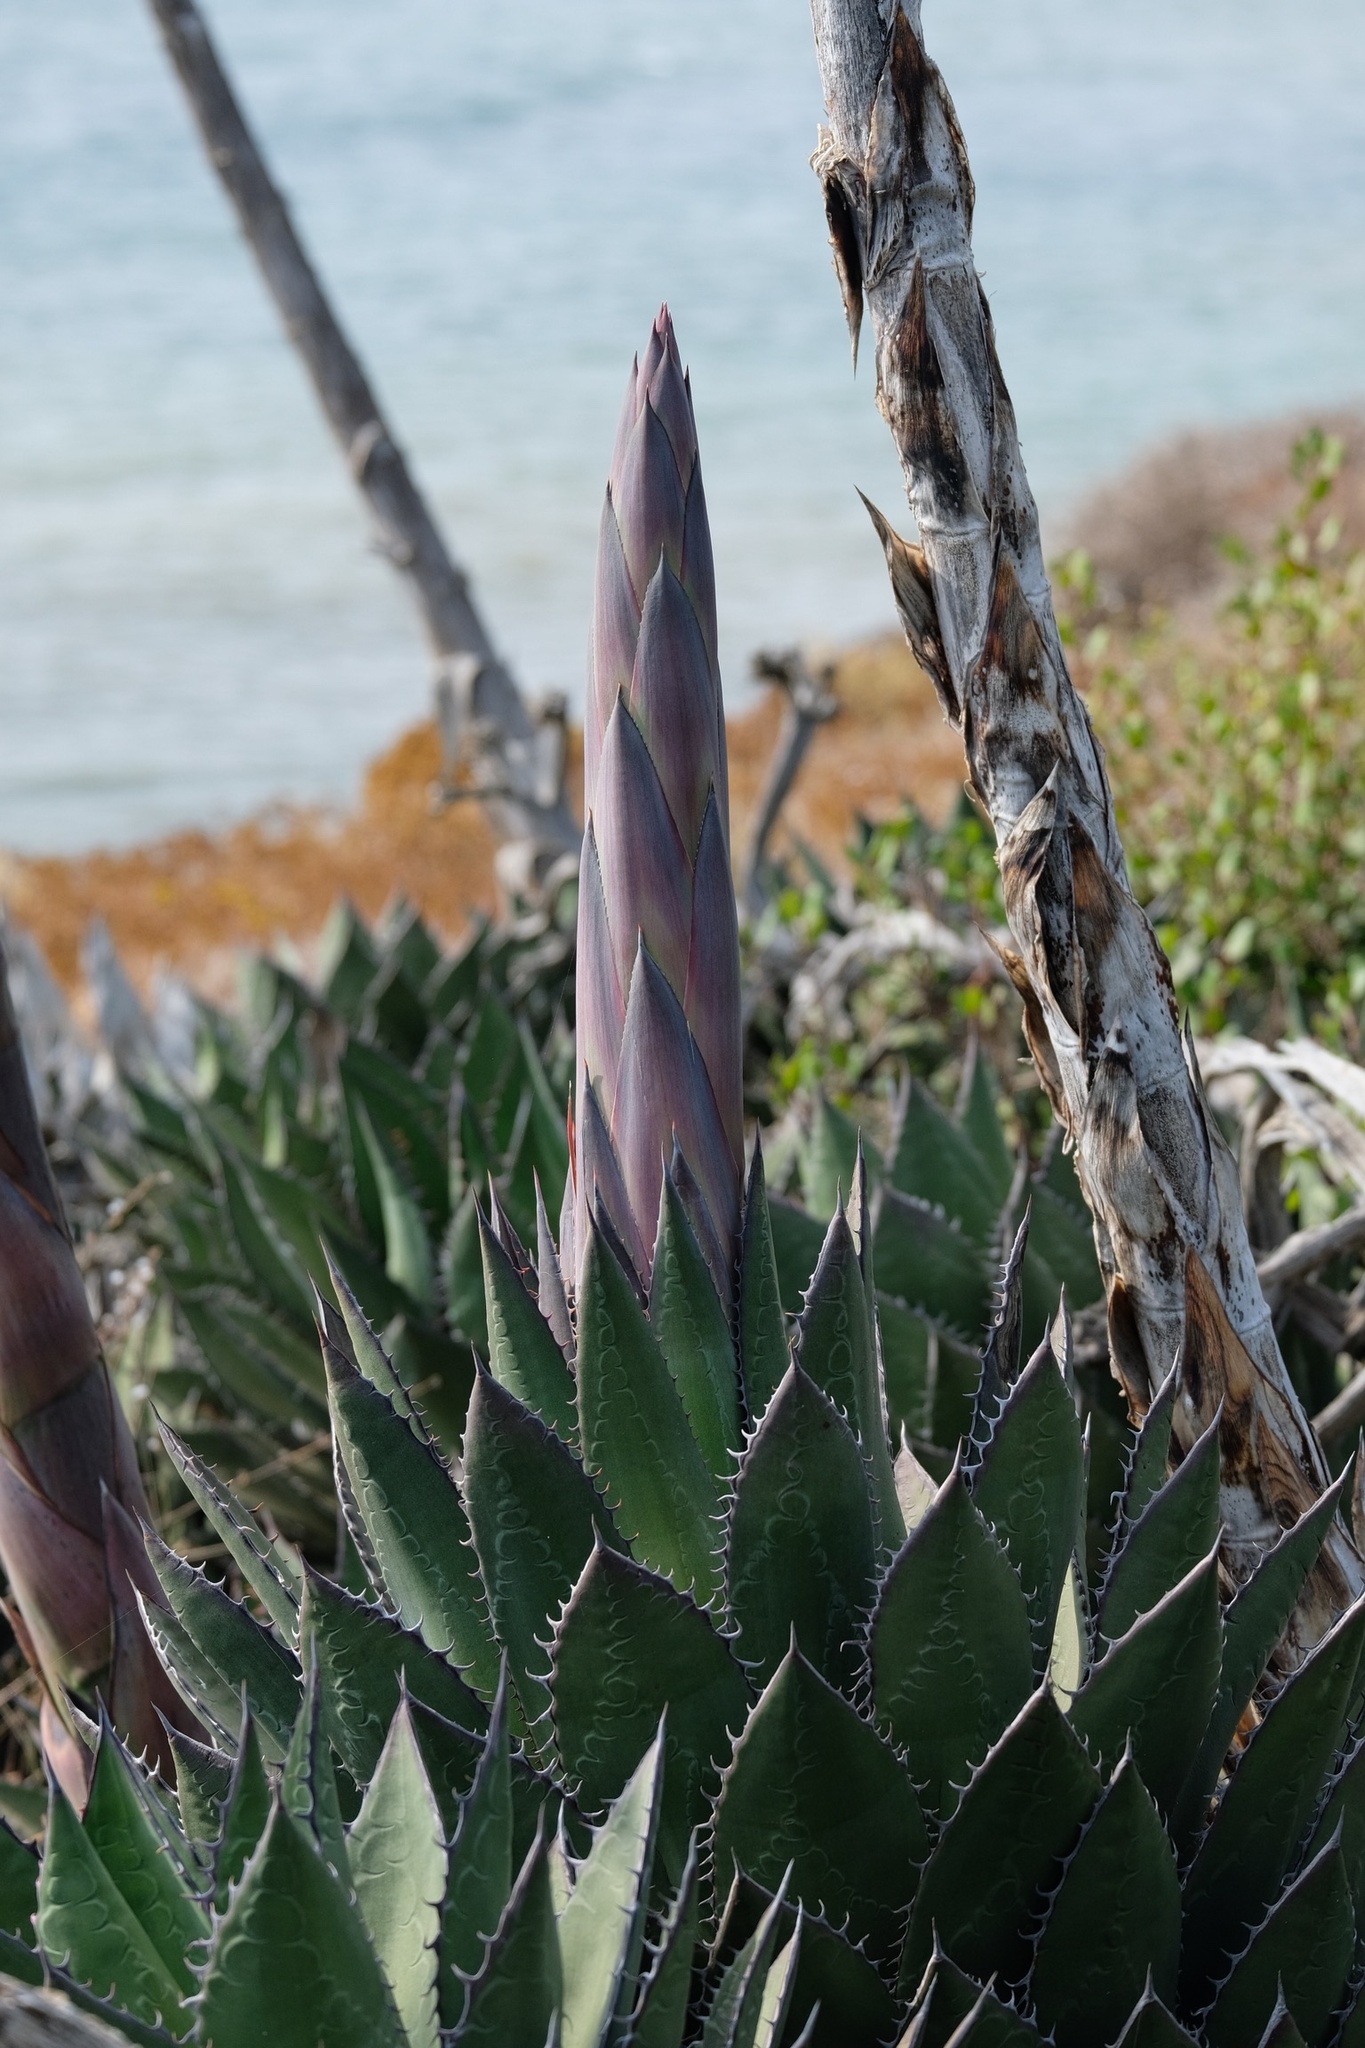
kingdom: Plantae
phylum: Tracheophyta
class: Liliopsida
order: Asparagales
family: Asparagaceae
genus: Agave
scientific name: Agave shawii
